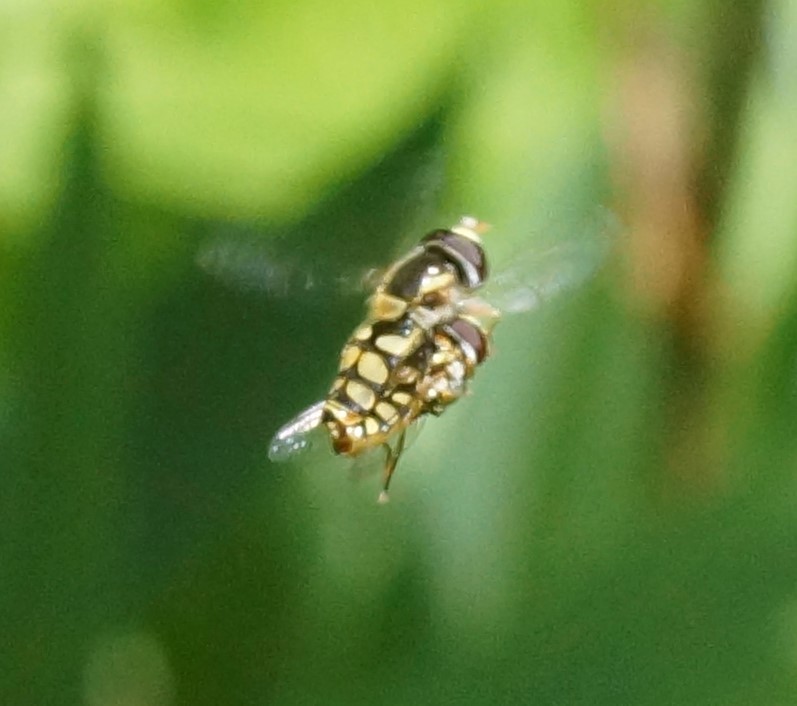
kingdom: Animalia
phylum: Arthropoda
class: Insecta
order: Diptera
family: Syrphidae
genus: Simosyrphus
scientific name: Simosyrphus grandicornis
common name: Hoverfly
